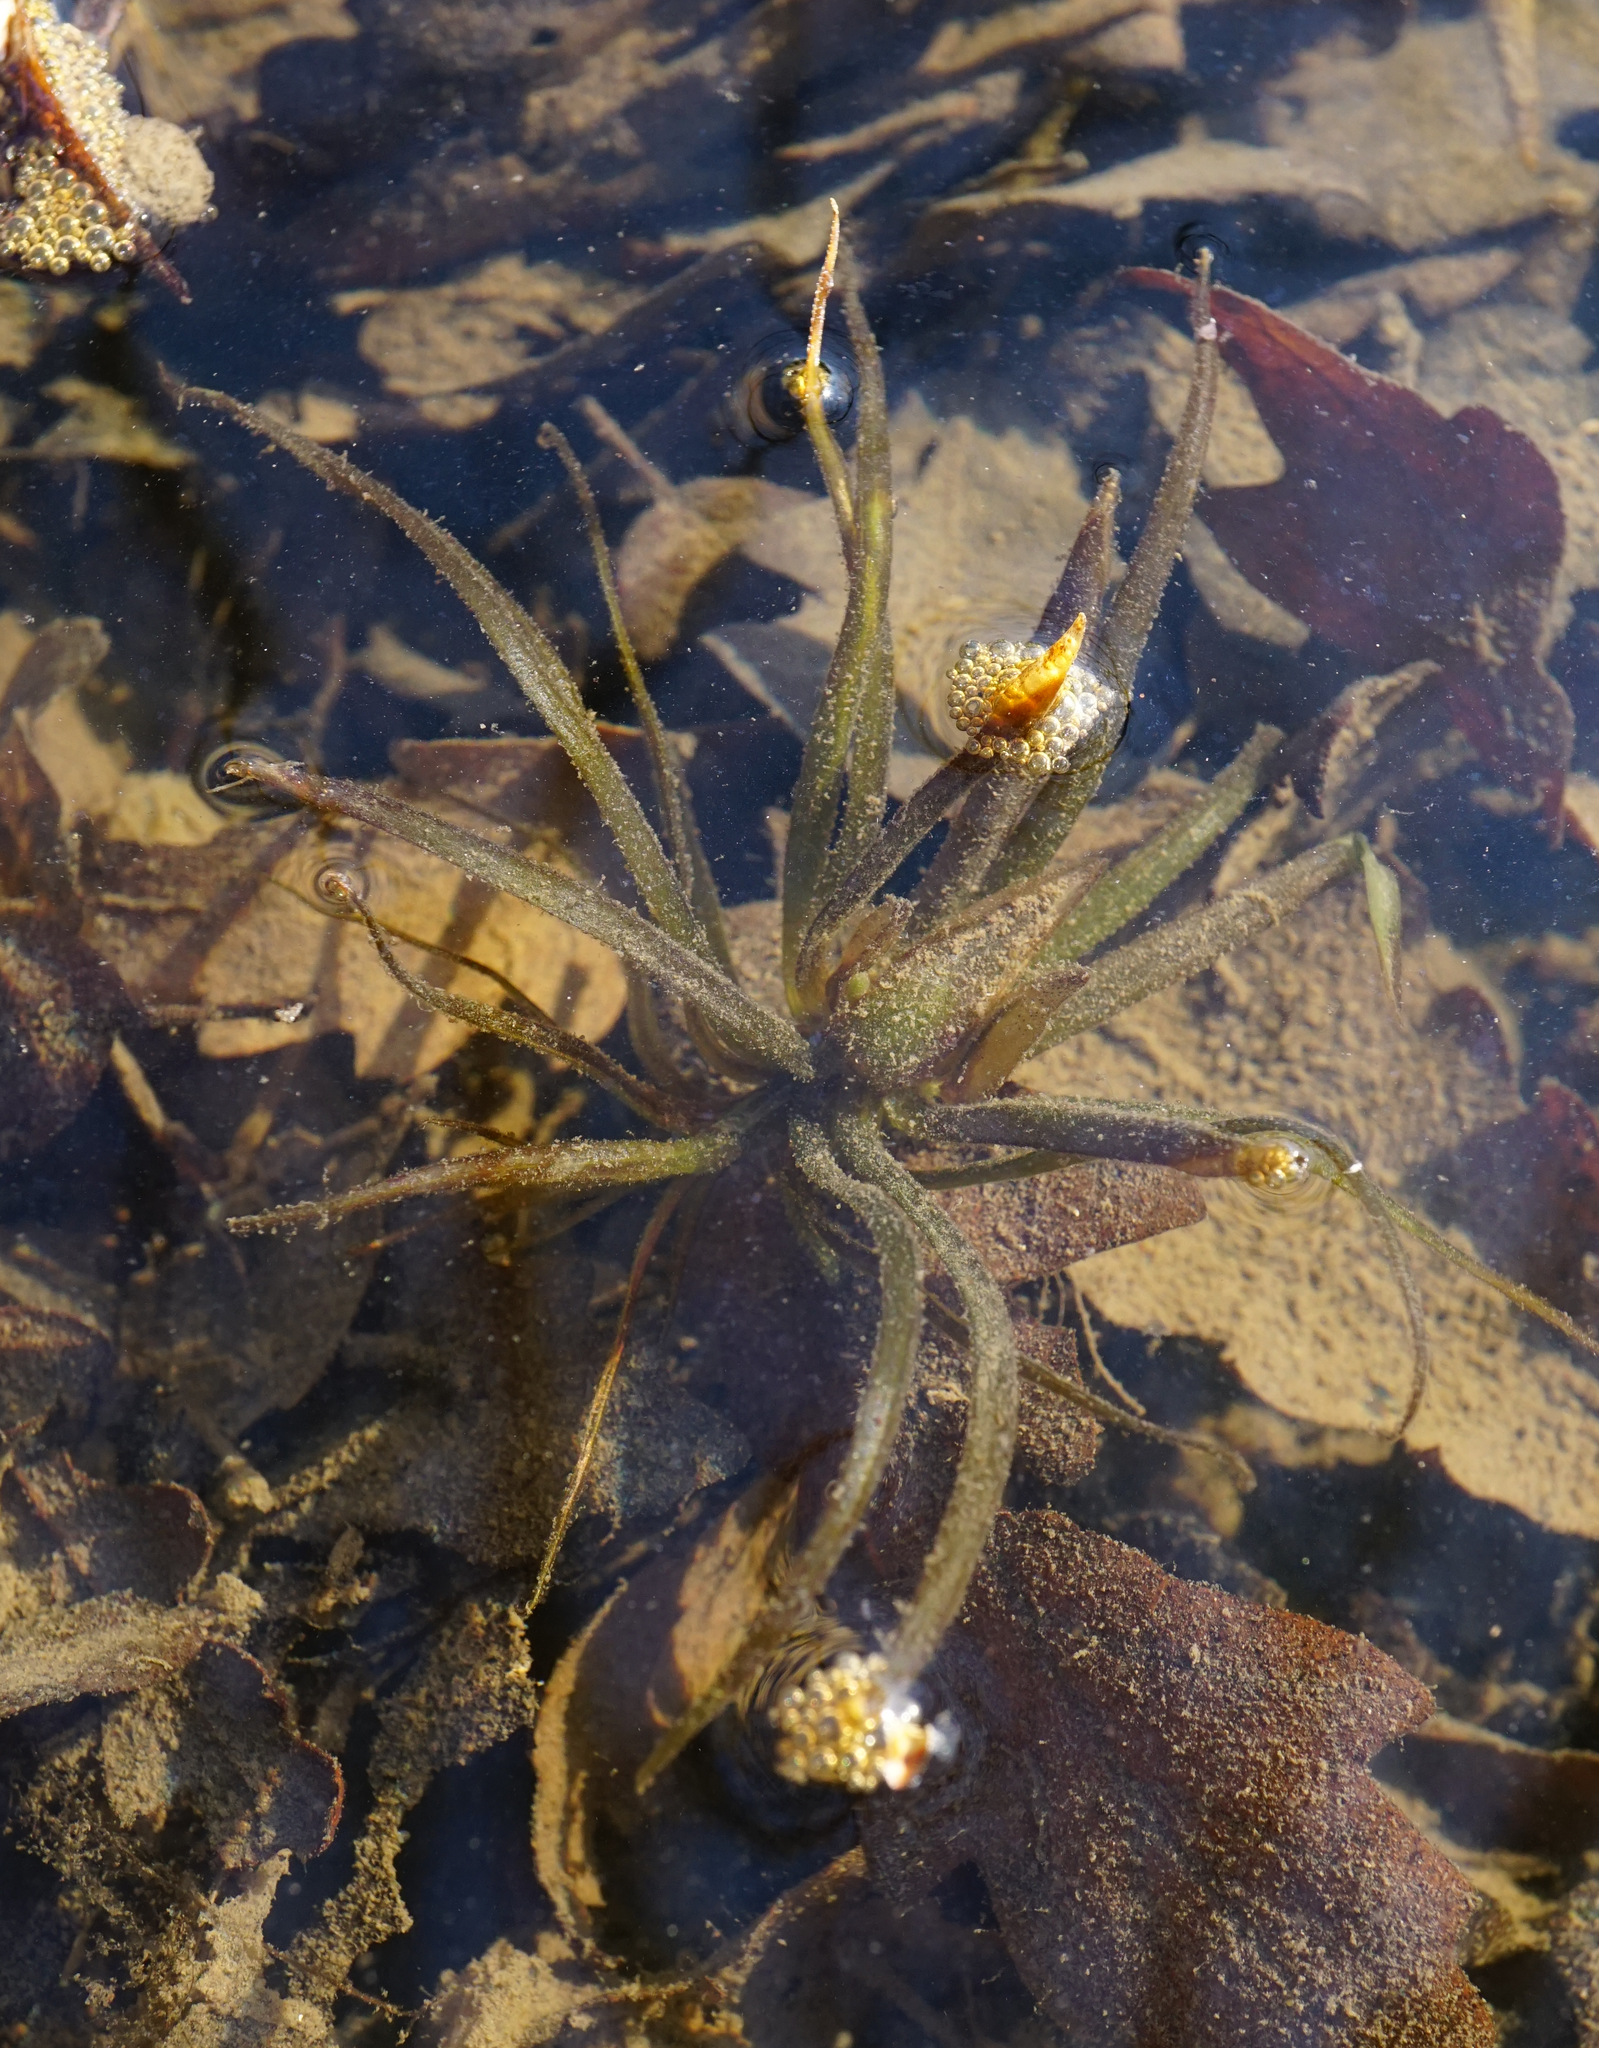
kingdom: Plantae
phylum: Tracheophyta
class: Liliopsida
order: Alismatales
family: Hydrocharitaceae
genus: Stratiotes
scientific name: Stratiotes aloides
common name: Water-soldier
